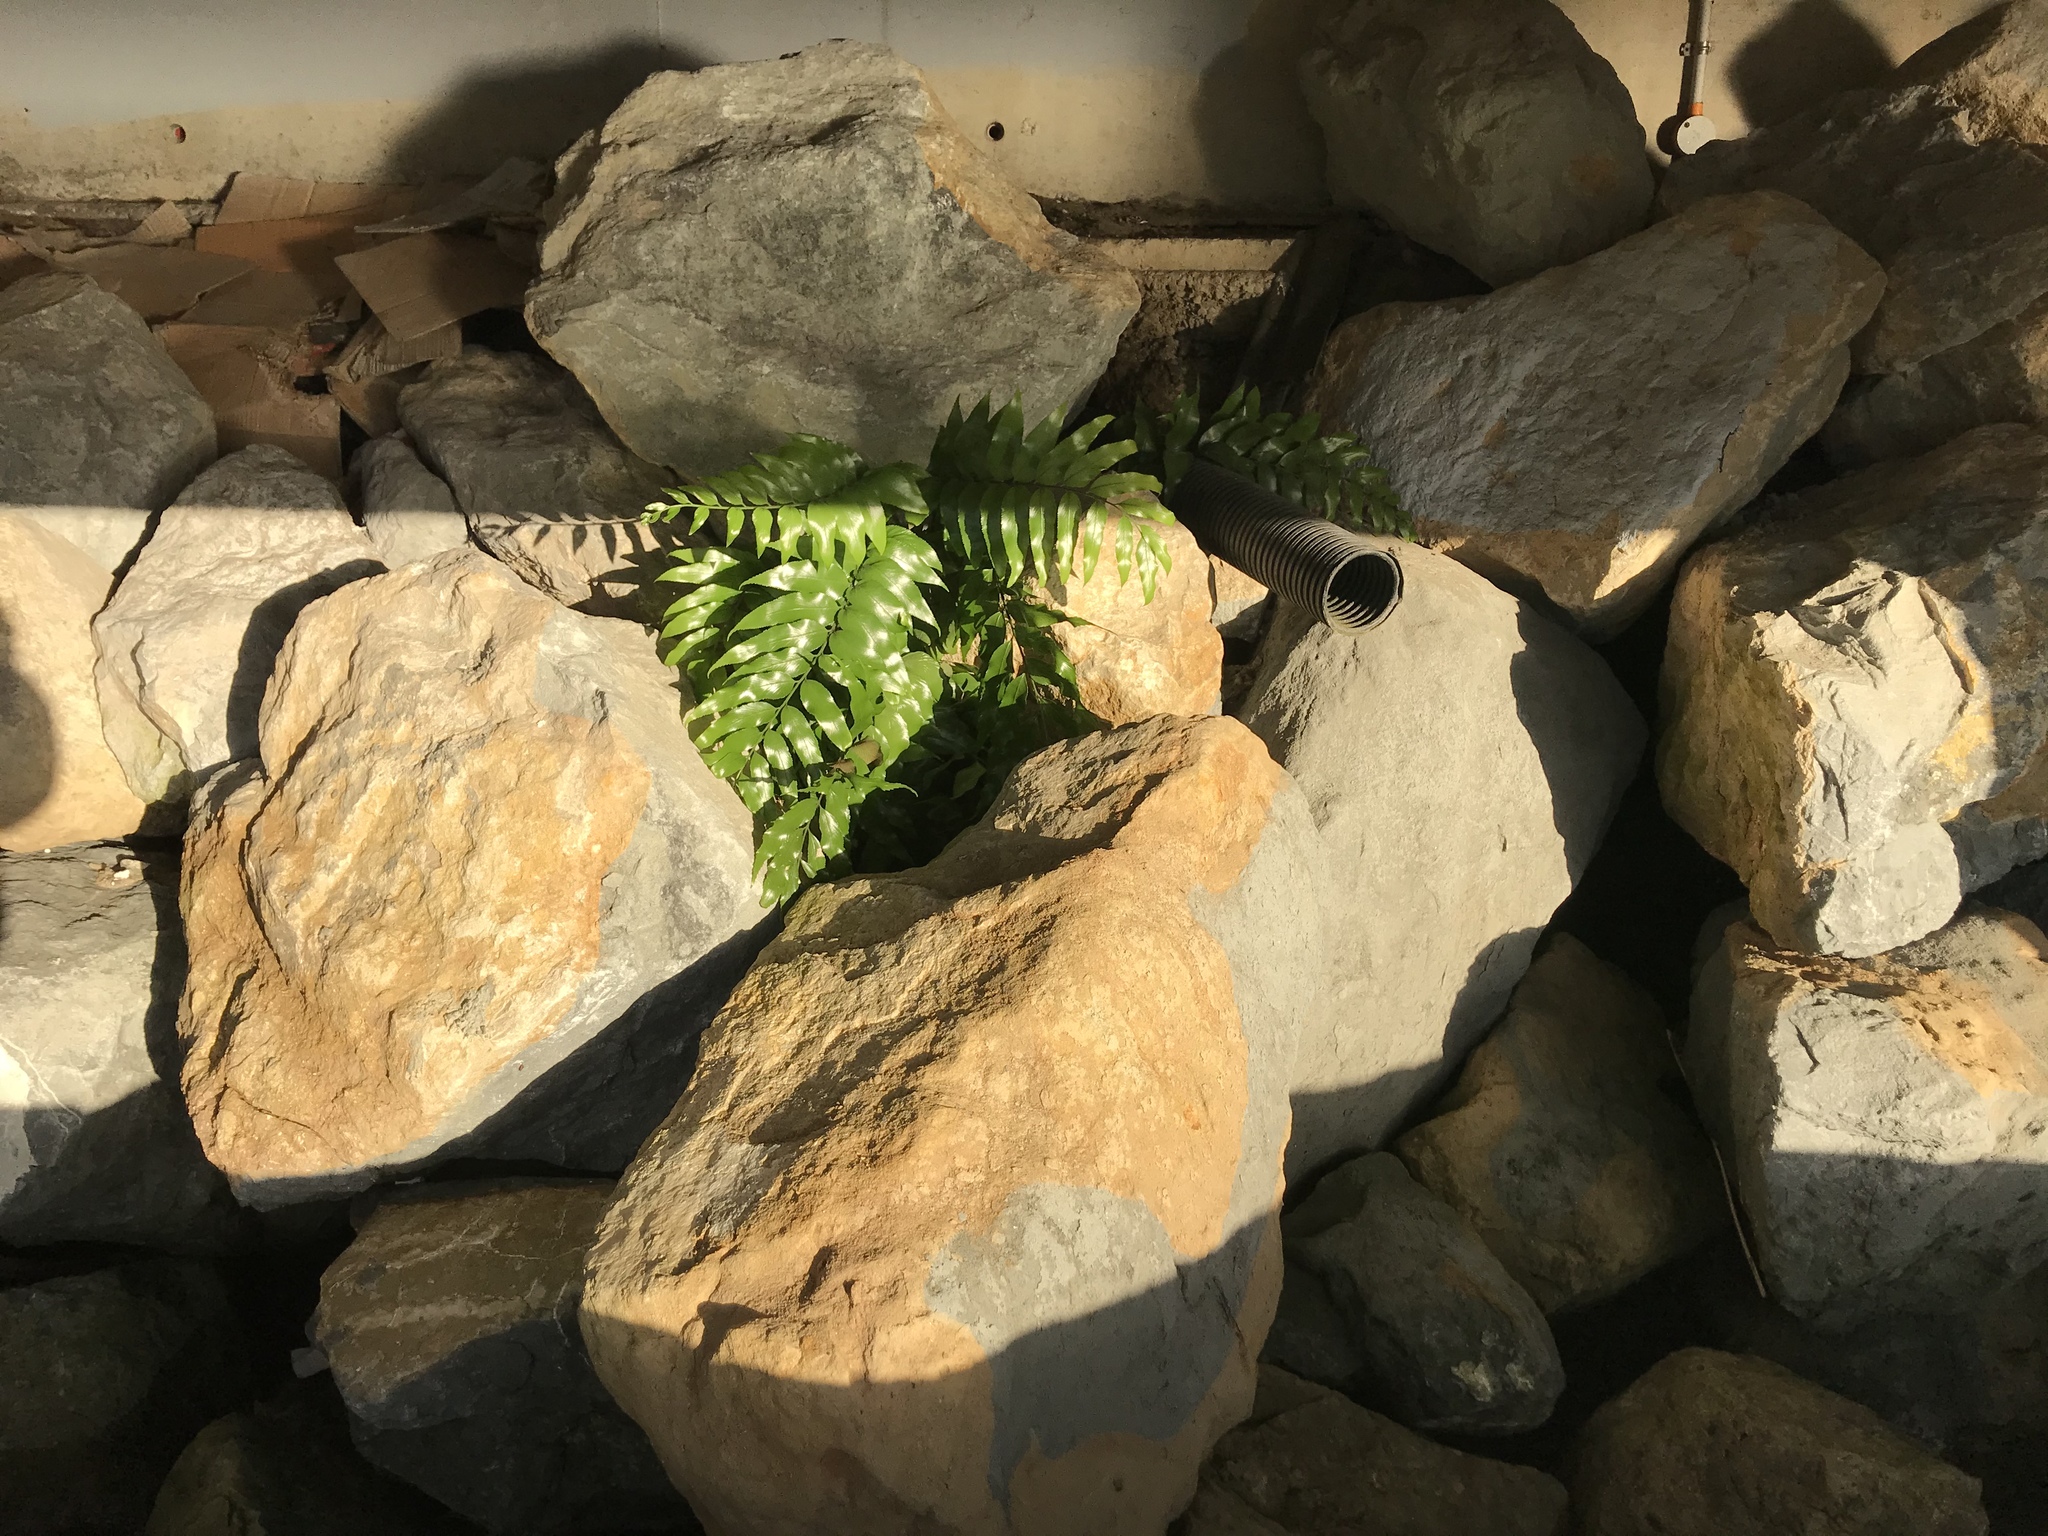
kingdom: Plantae
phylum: Tracheophyta
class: Polypodiopsida
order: Polypodiales
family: Aspleniaceae
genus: Asplenium
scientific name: Asplenium oblongifolium
